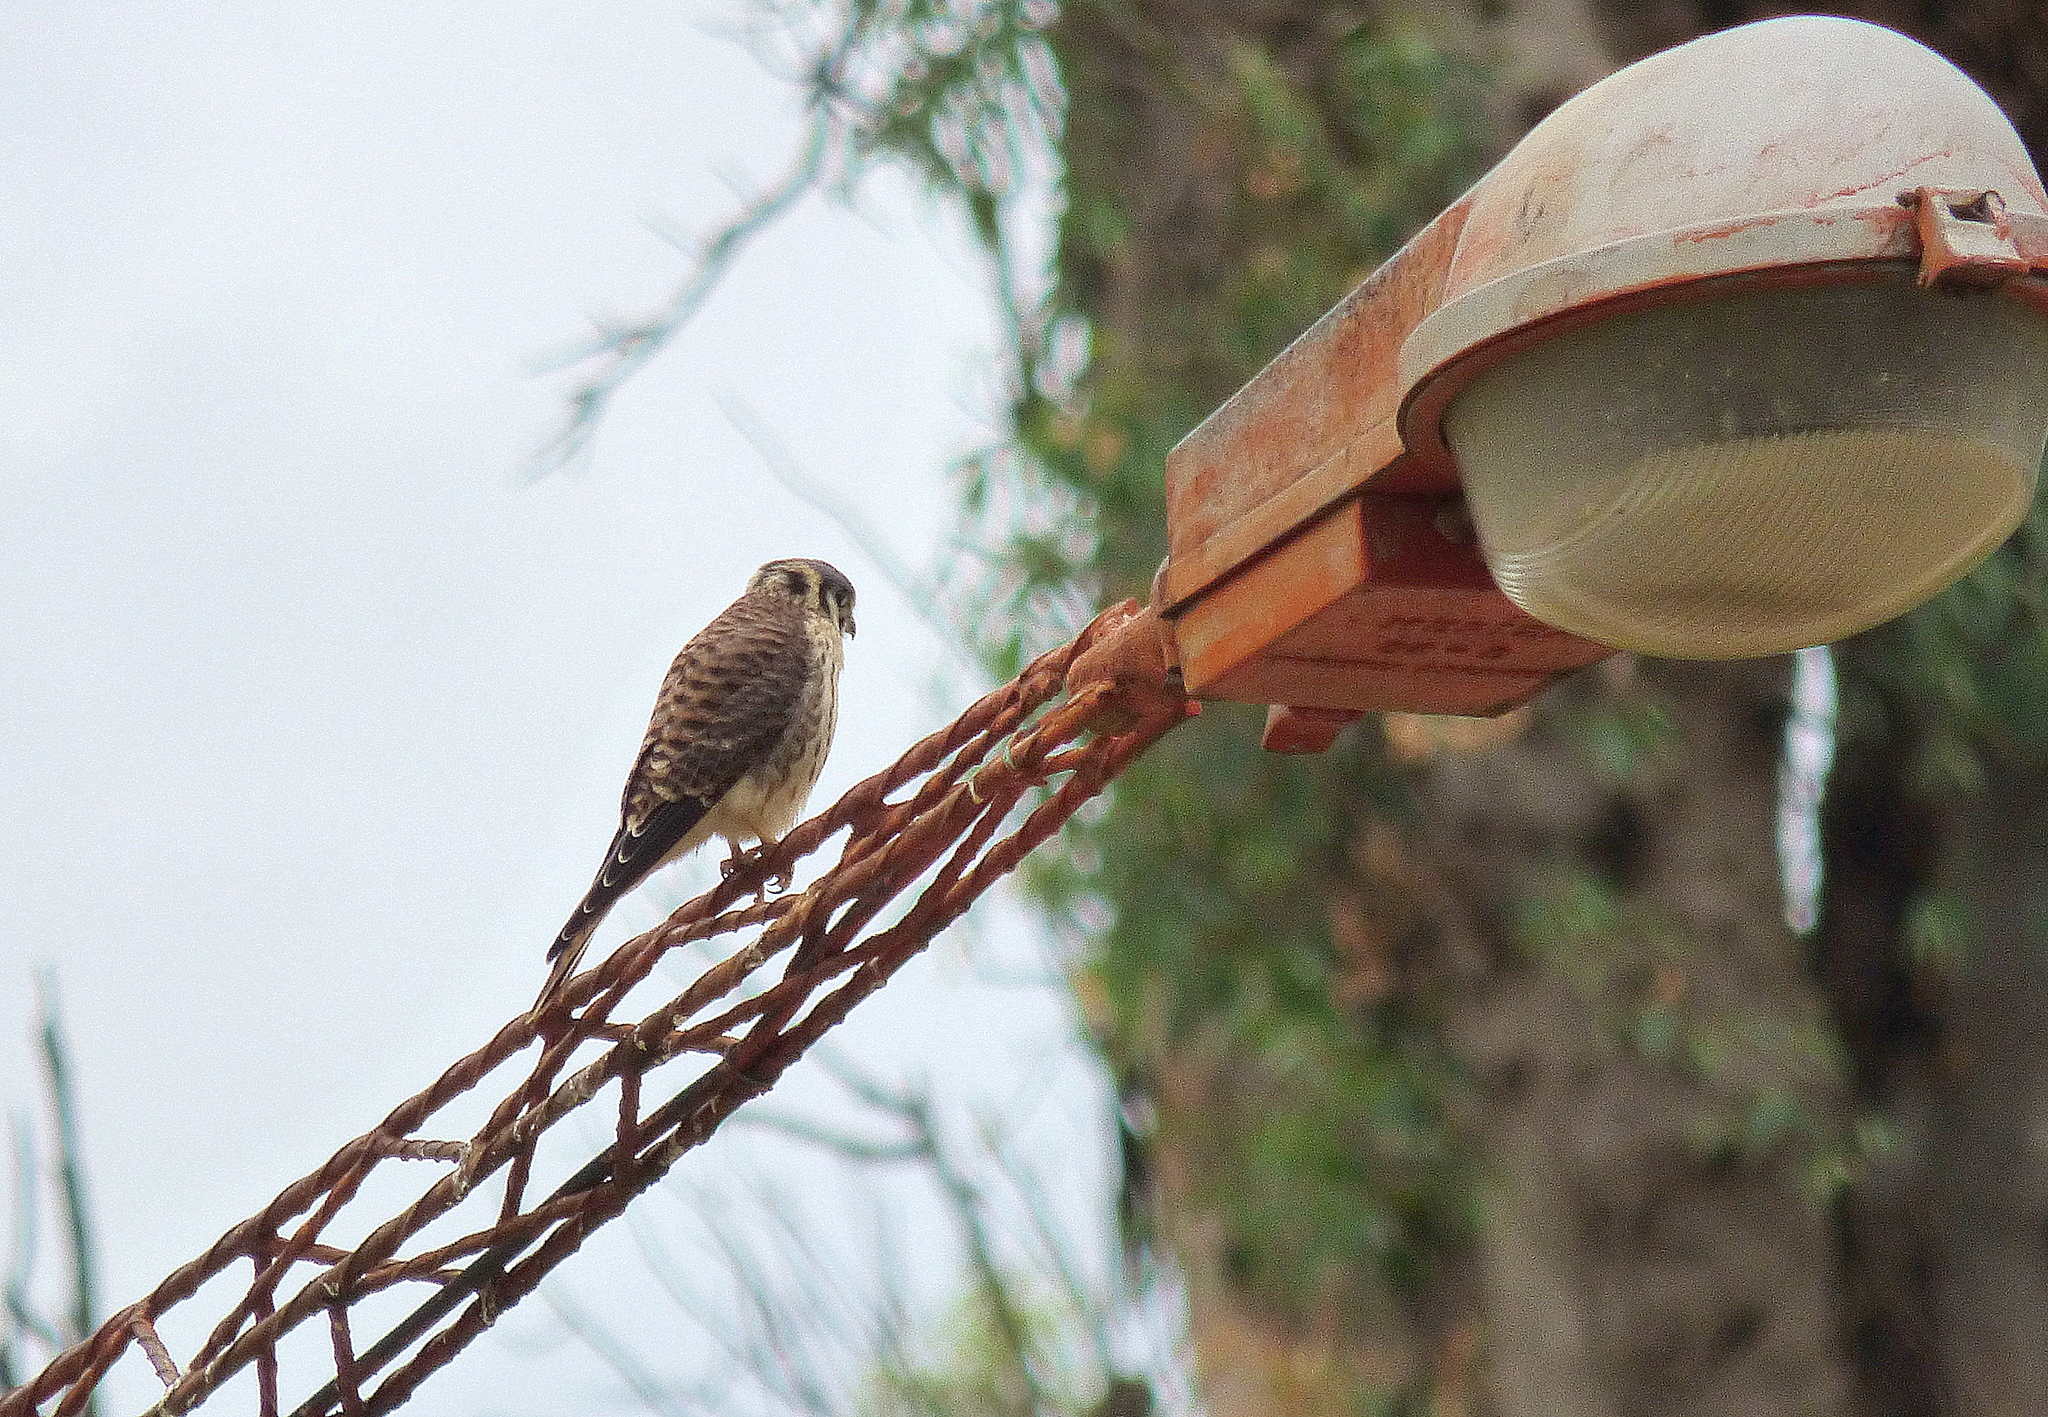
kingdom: Animalia
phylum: Chordata
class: Aves
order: Falconiformes
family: Falconidae
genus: Falco
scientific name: Falco sparverius
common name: American kestrel
